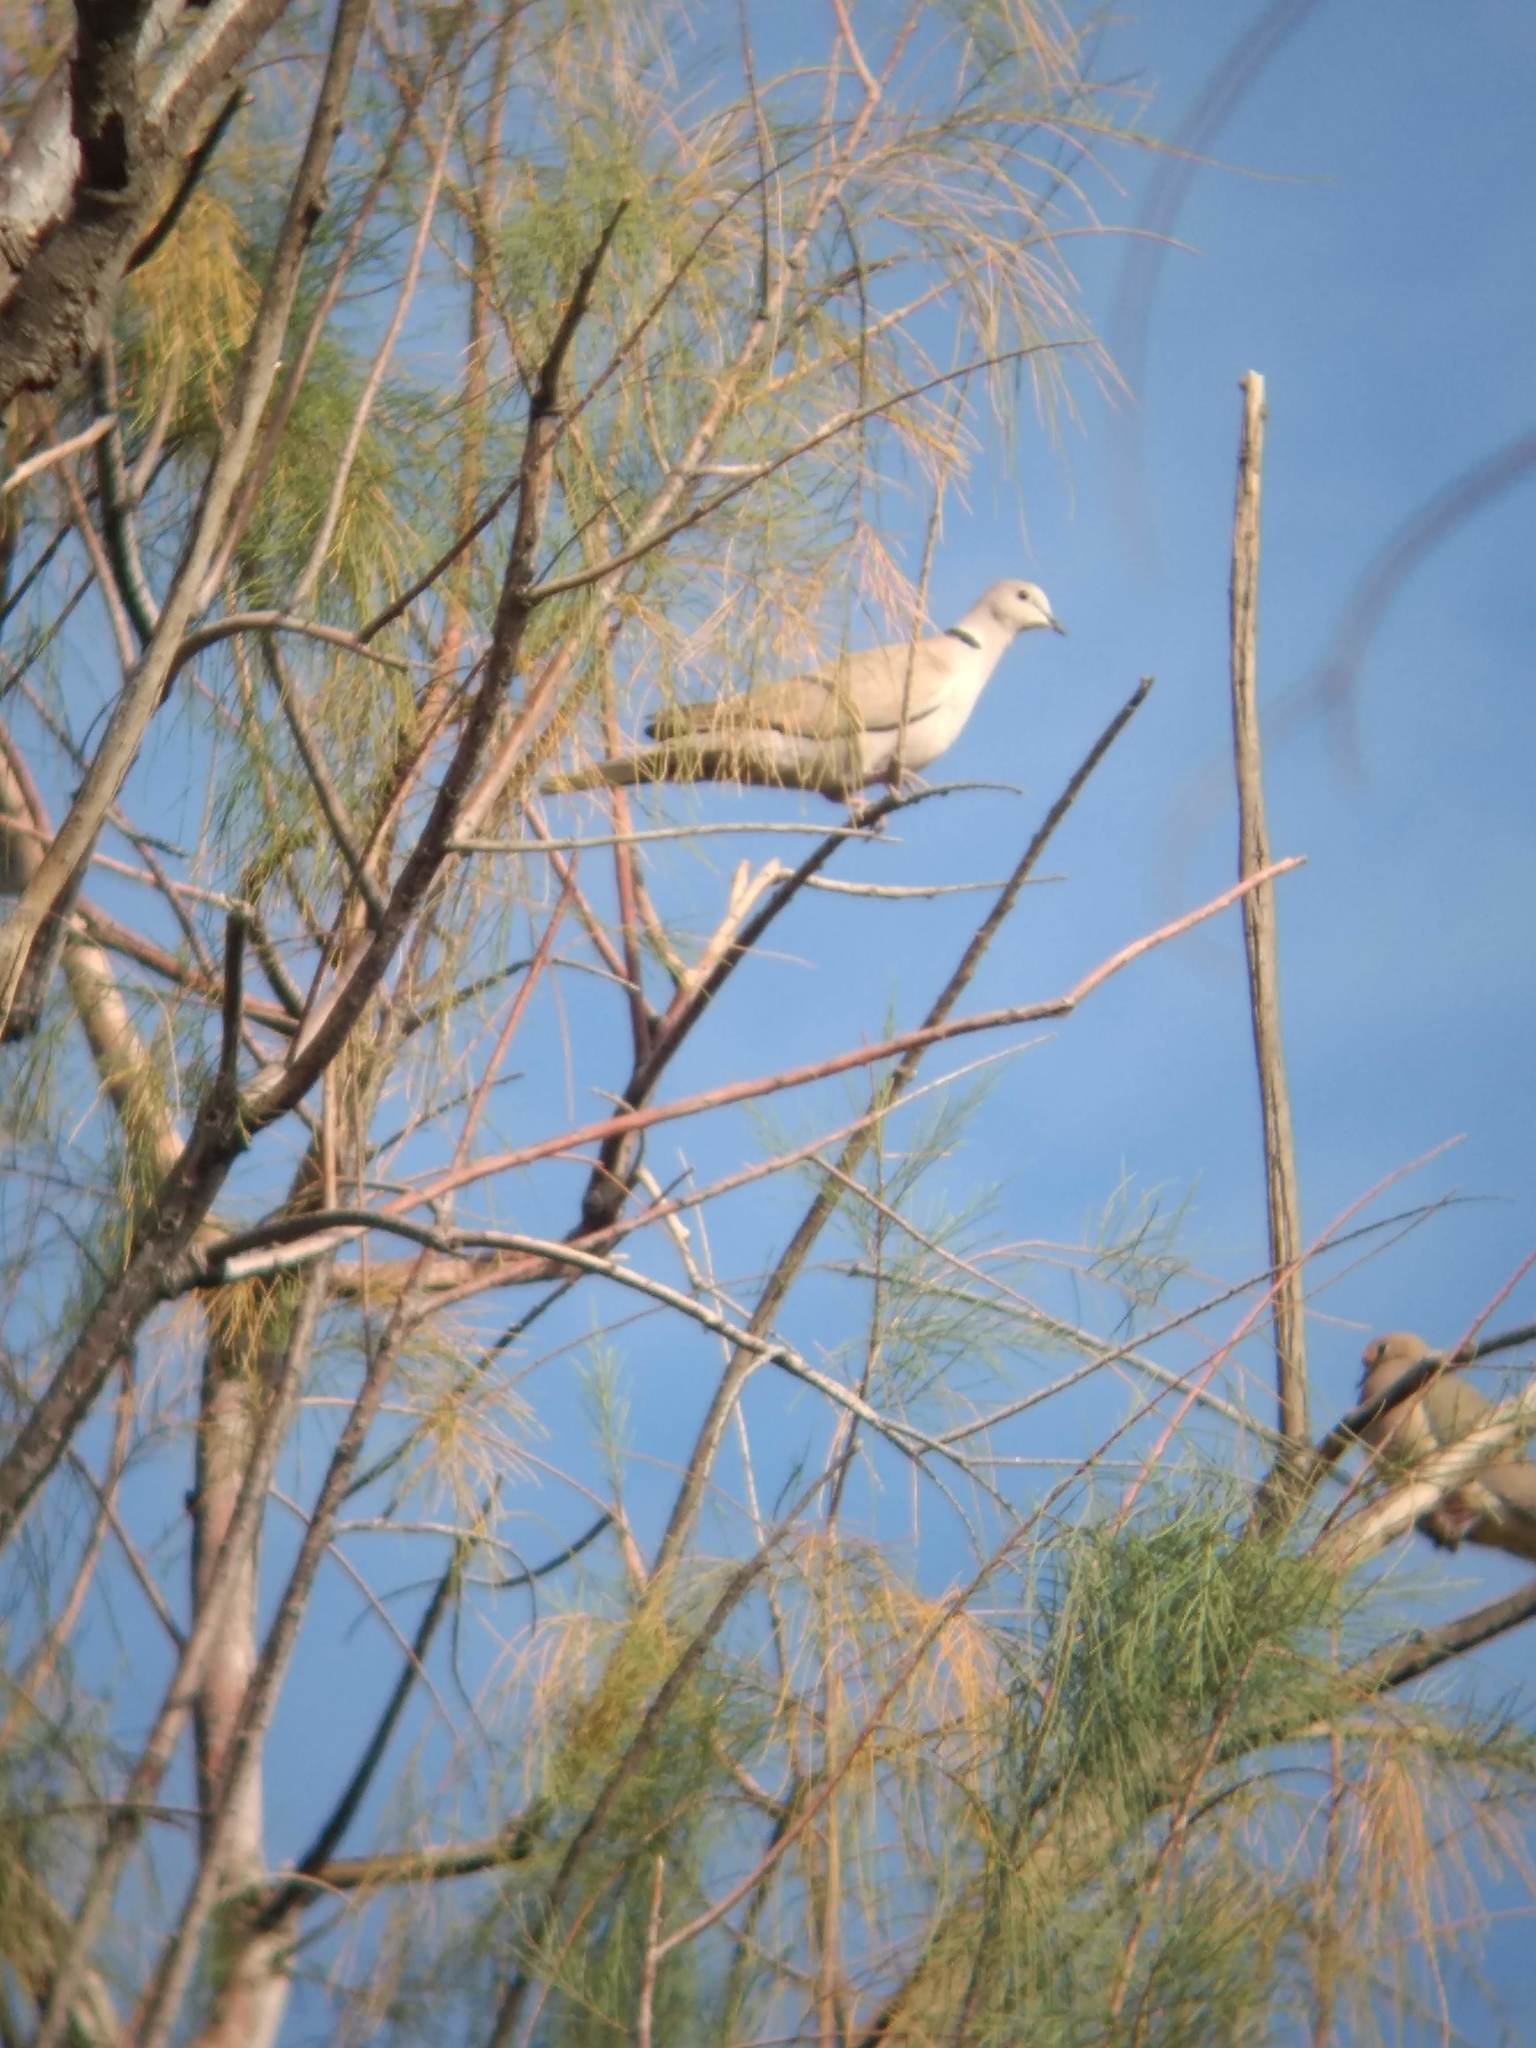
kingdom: Animalia
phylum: Chordata
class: Aves
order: Columbiformes
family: Columbidae
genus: Streptopelia
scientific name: Streptopelia decaocto
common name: Eurasian collared dove
